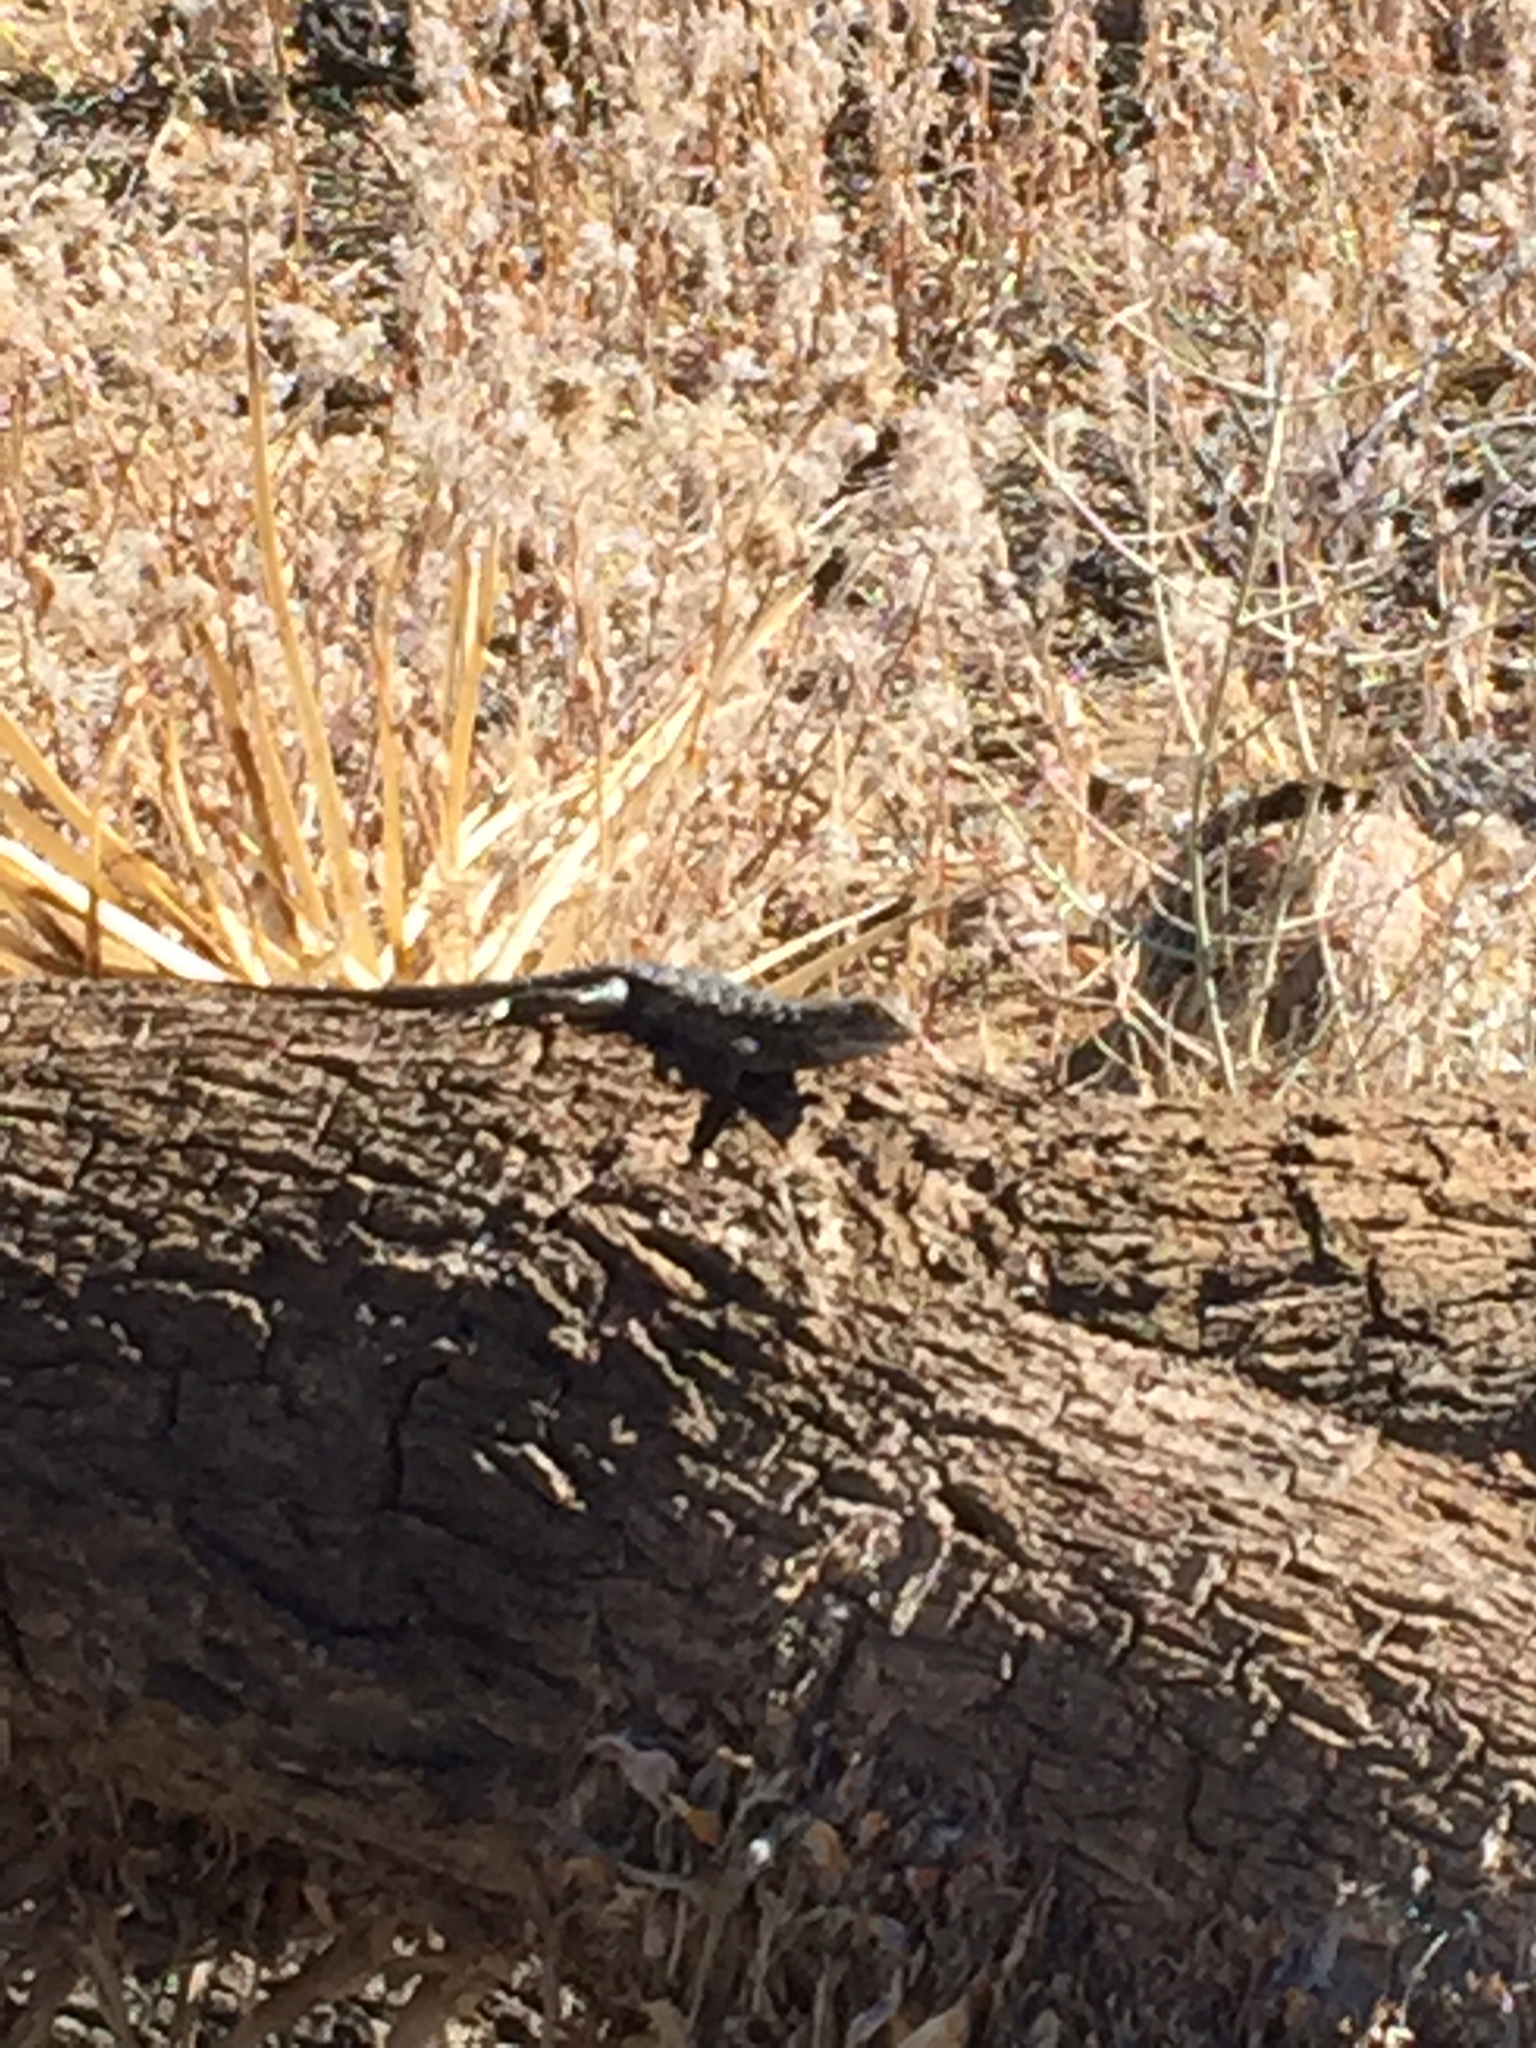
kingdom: Animalia
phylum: Chordata
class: Squamata
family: Phrynosomatidae
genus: Sceloporus
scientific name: Sceloporus occidentalis
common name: Western fence lizard
